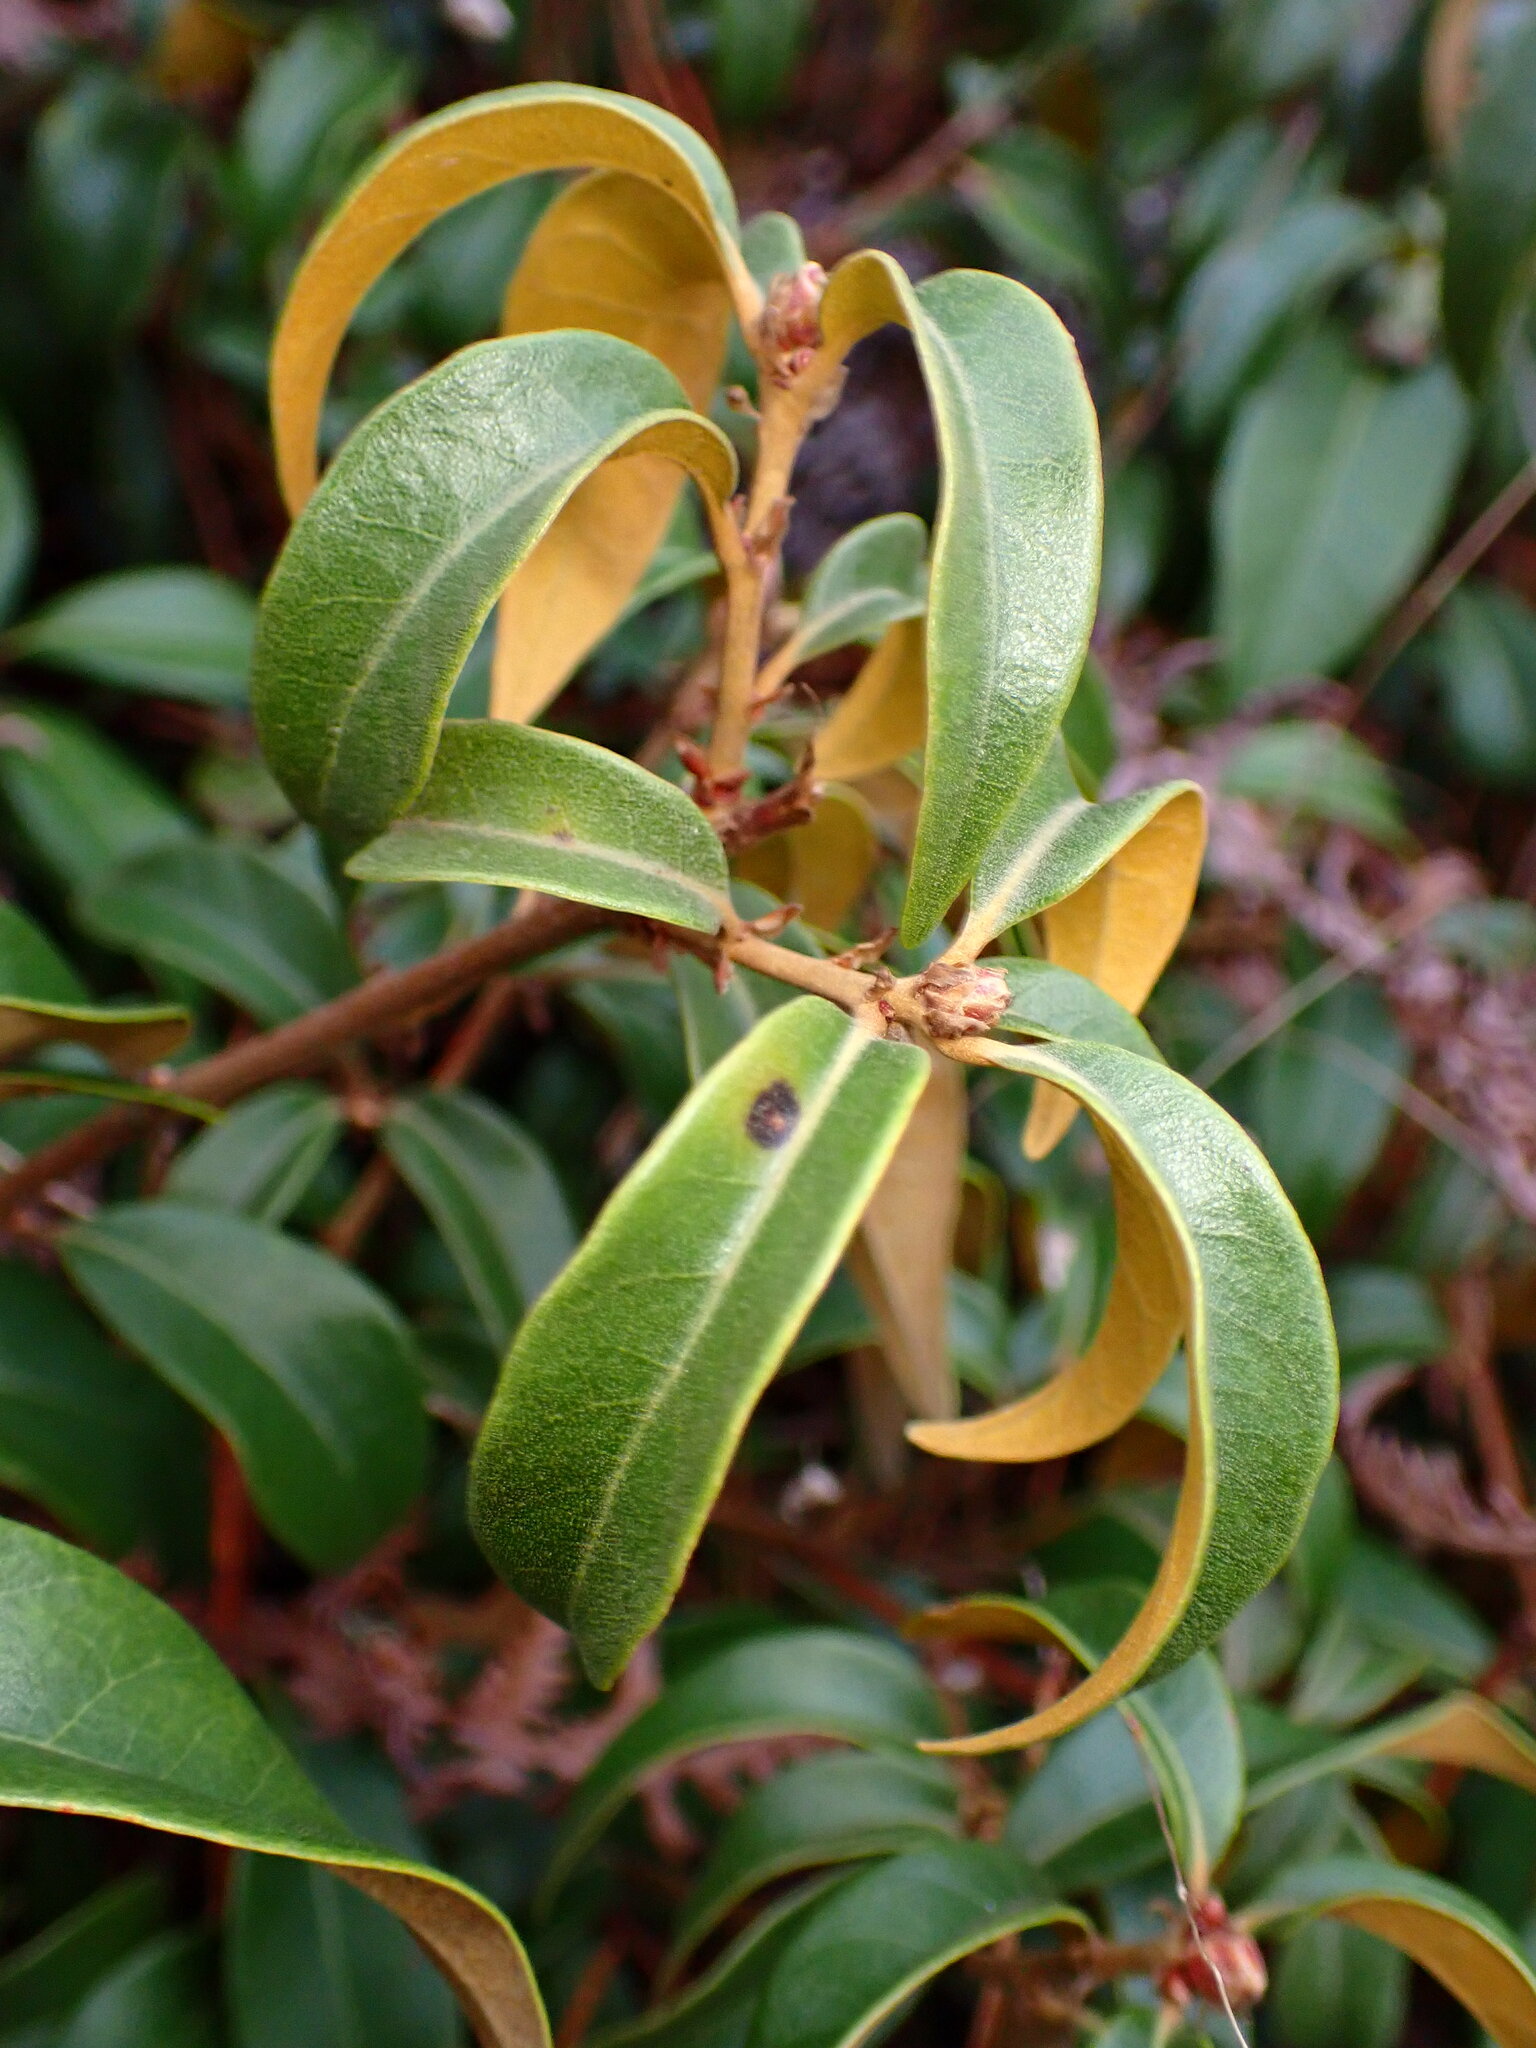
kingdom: Plantae
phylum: Tracheophyta
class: Magnoliopsida
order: Fagales
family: Fagaceae
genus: Chrysolepis
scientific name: Chrysolepis chrysophylla
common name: Giant chinquapin
